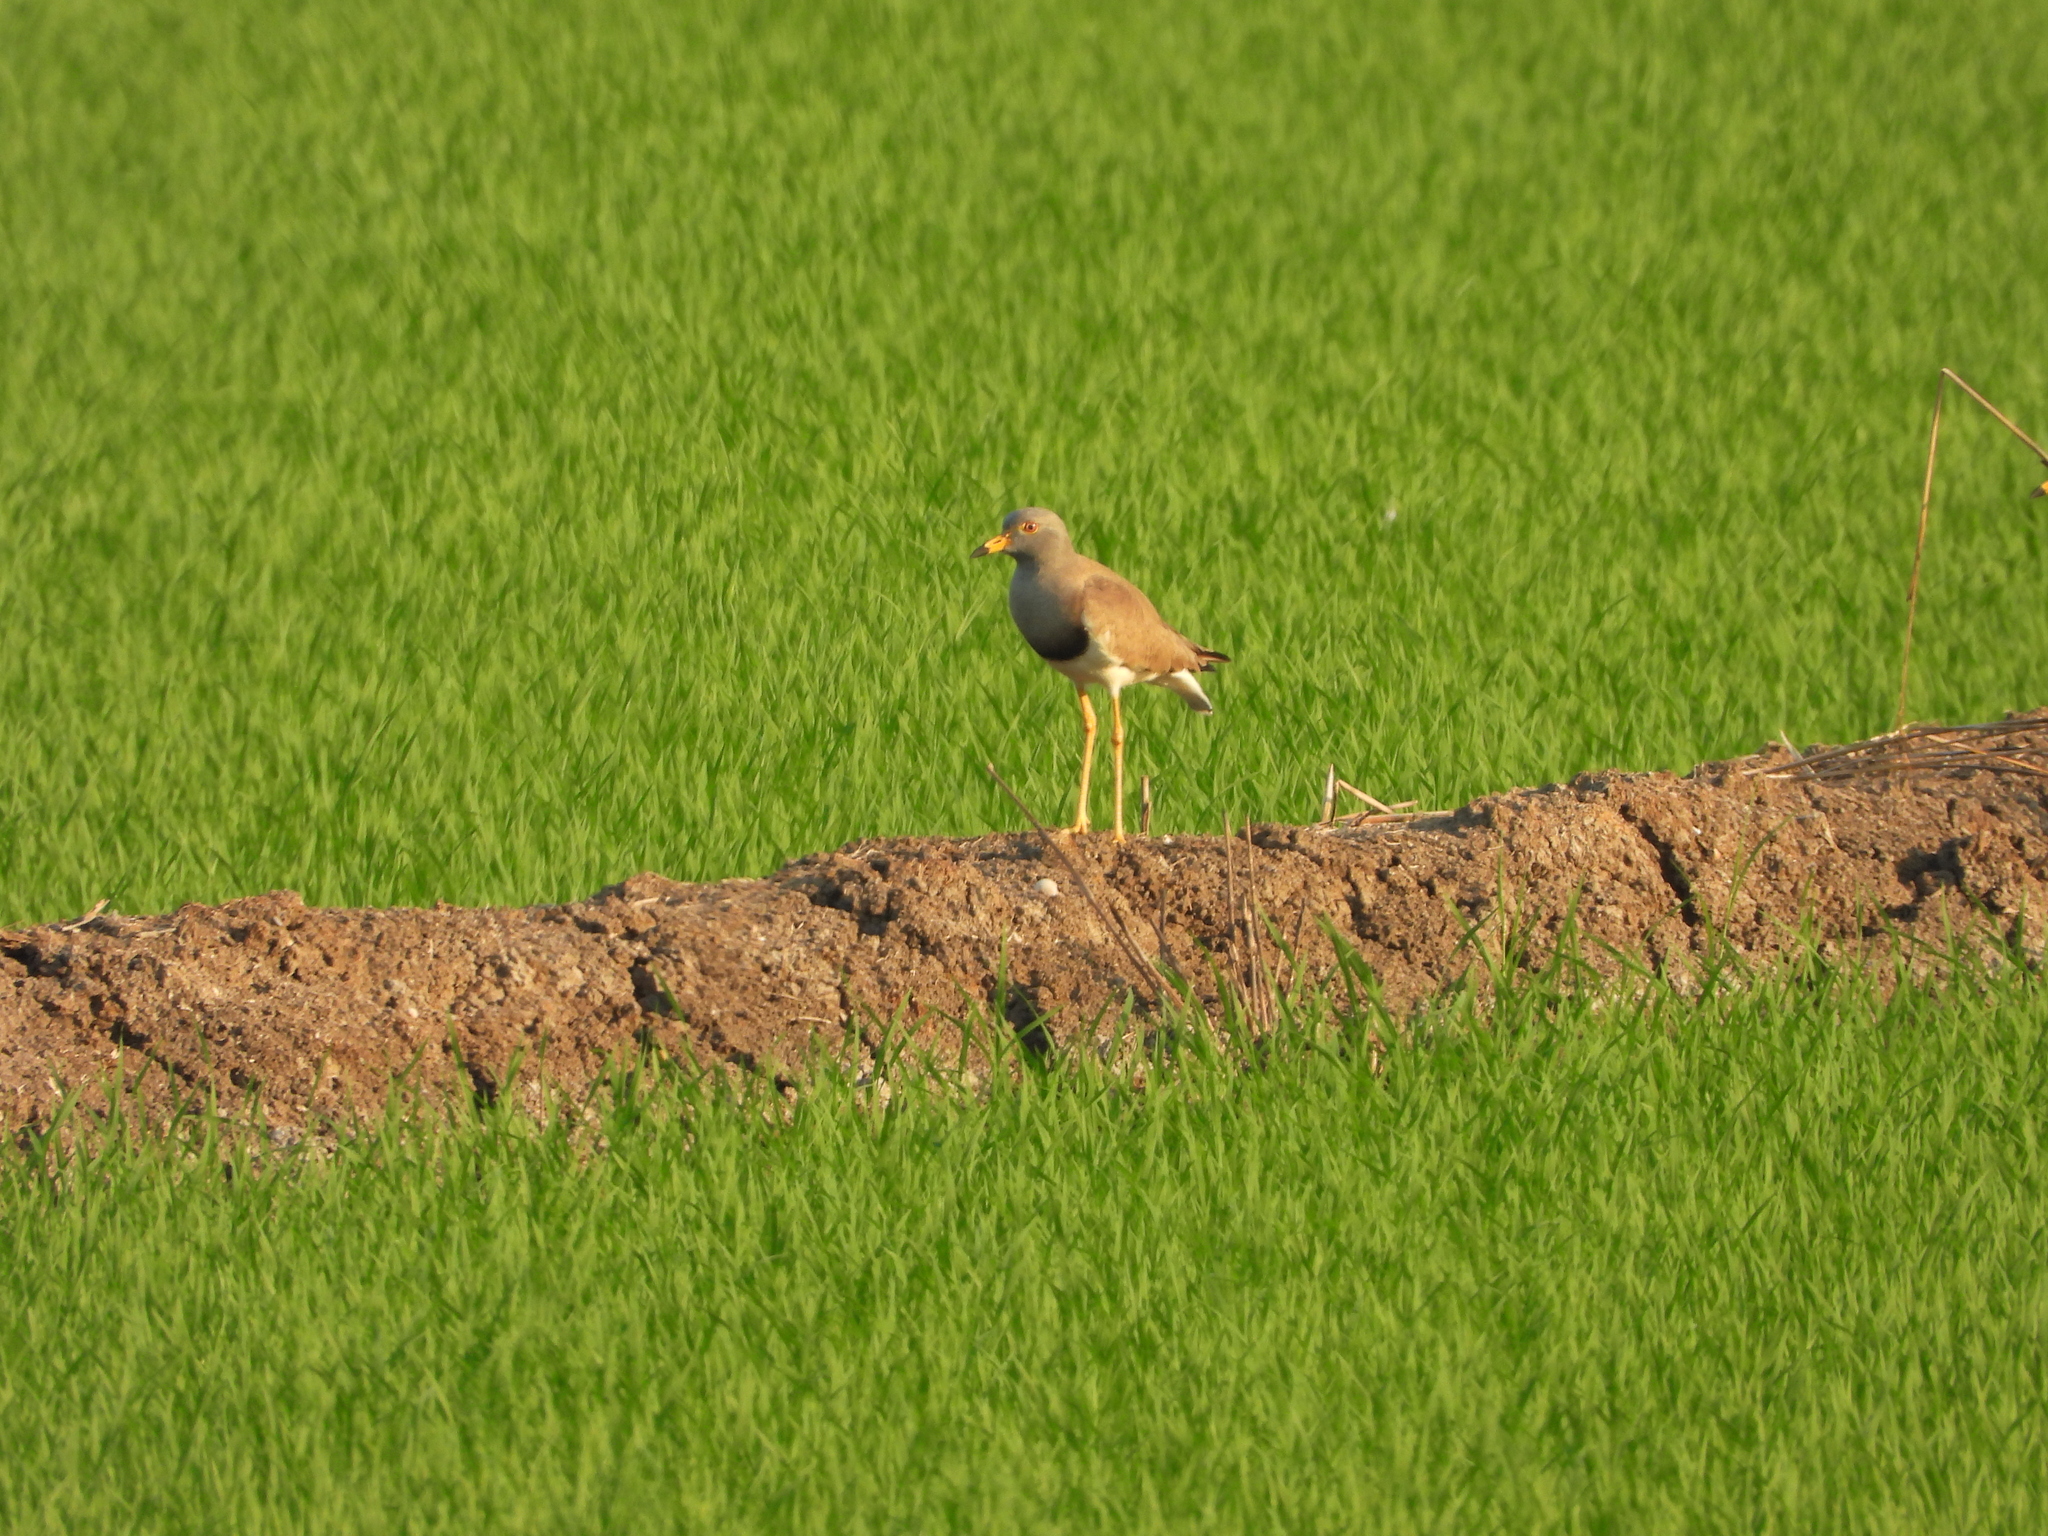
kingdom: Animalia
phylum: Chordata
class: Aves
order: Charadriiformes
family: Charadriidae
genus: Vanellus
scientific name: Vanellus cinereus
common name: Grey-headed lapwing
